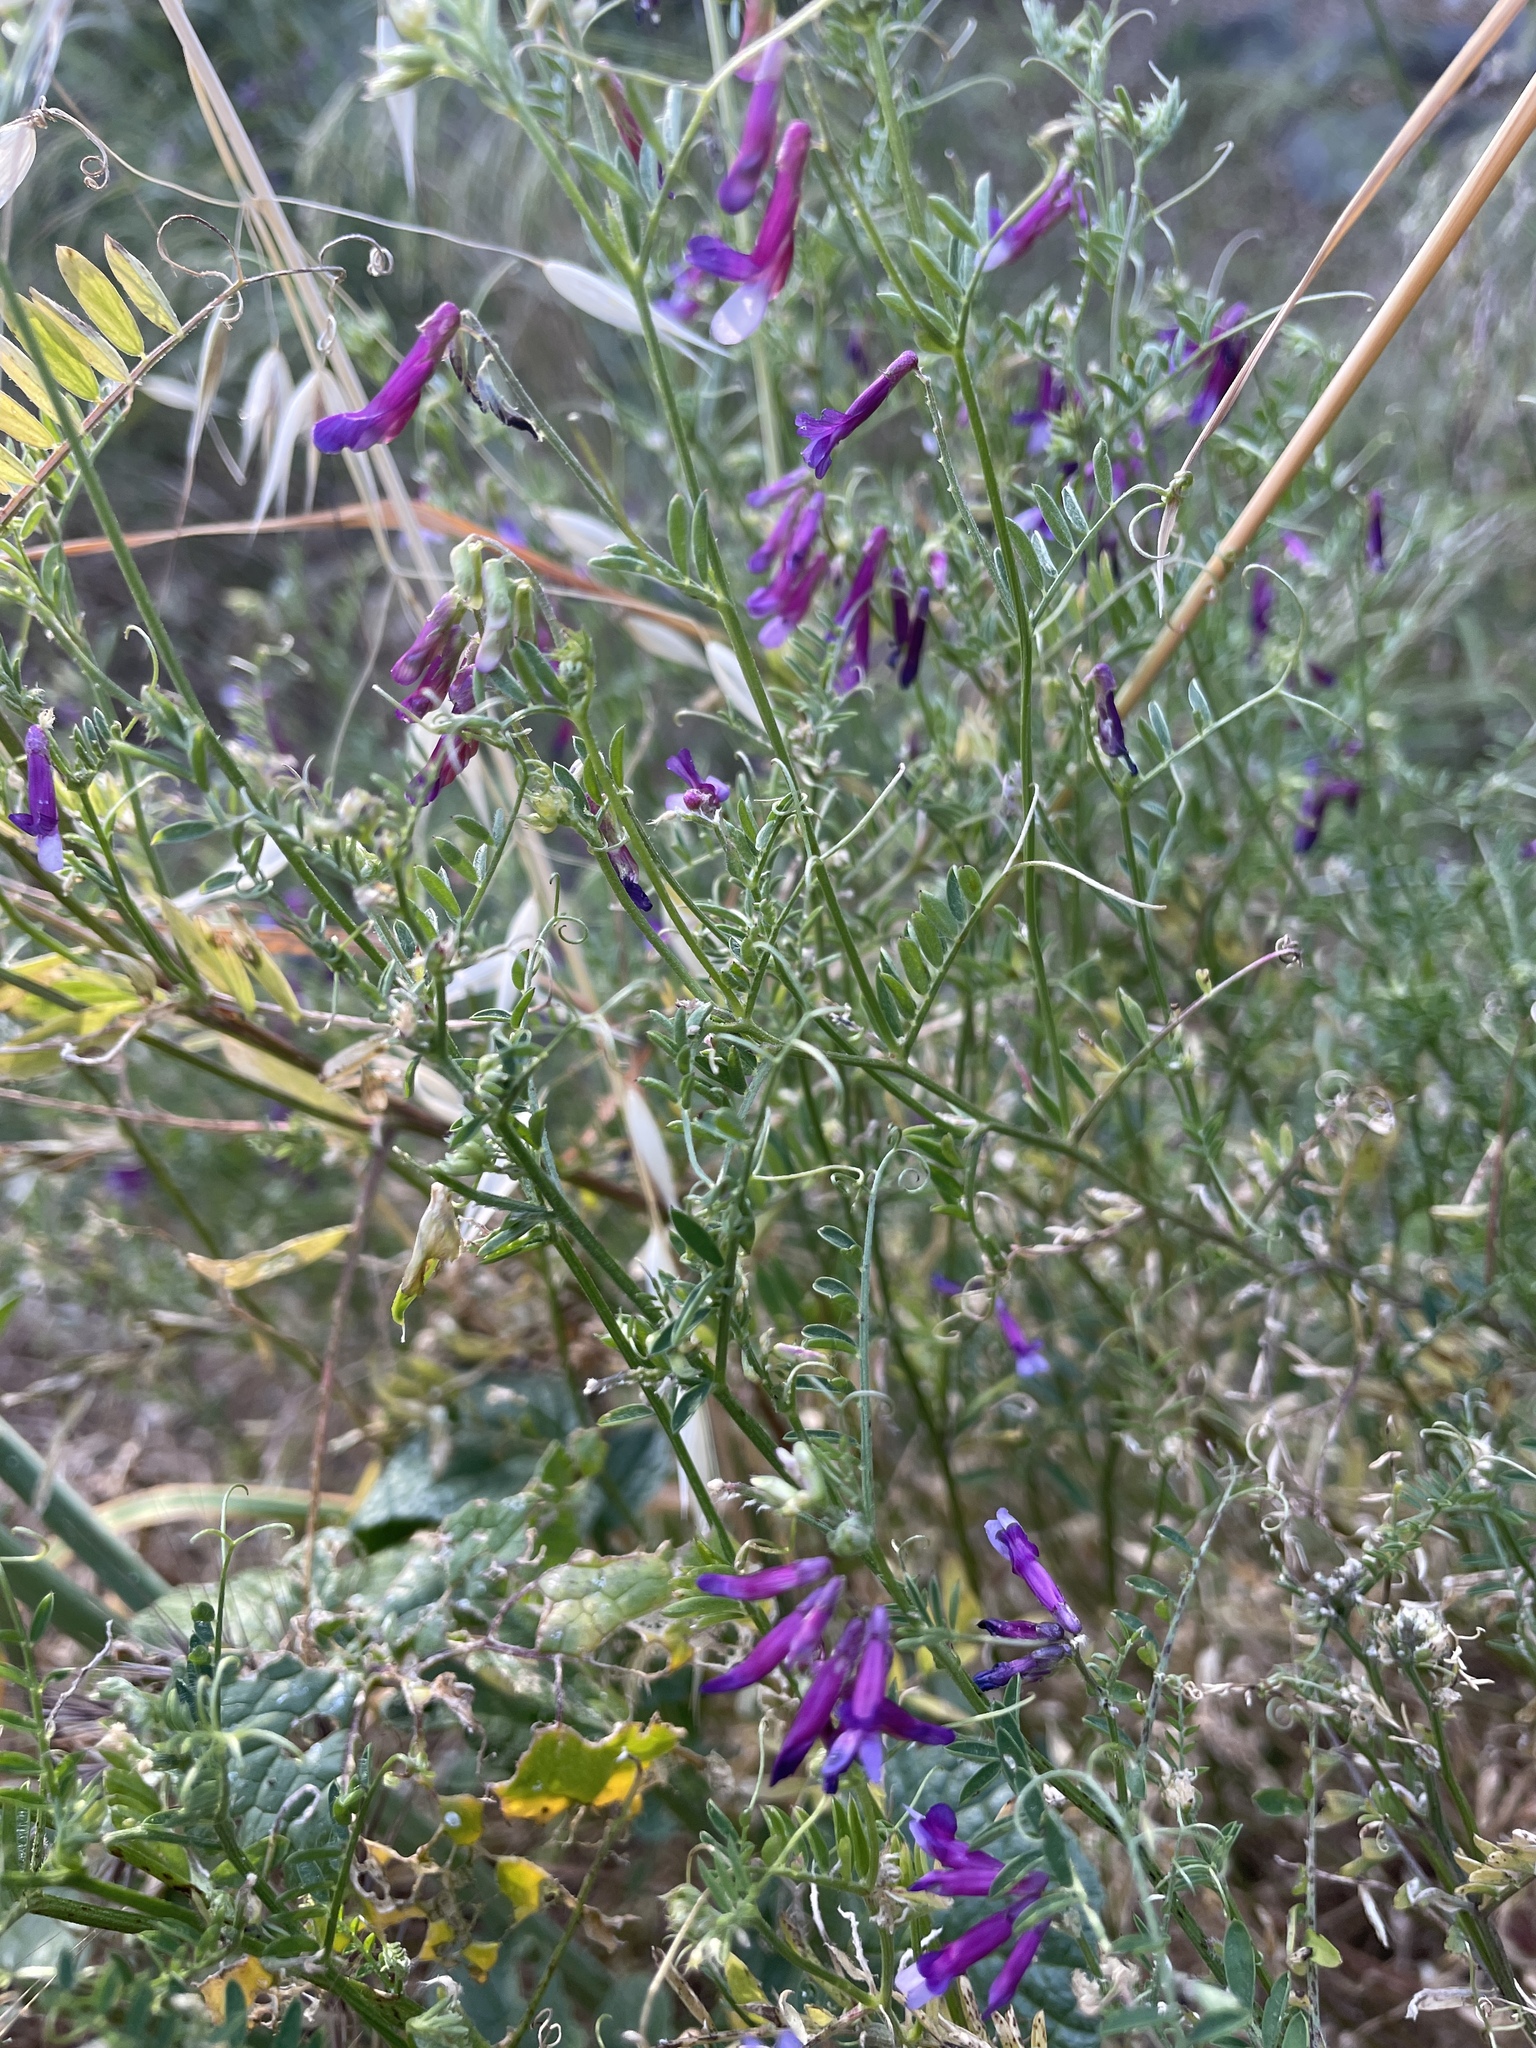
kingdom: Plantae
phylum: Tracheophyta
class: Magnoliopsida
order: Fabales
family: Fabaceae
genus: Vicia
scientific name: Vicia villosa
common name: Fodder vetch
